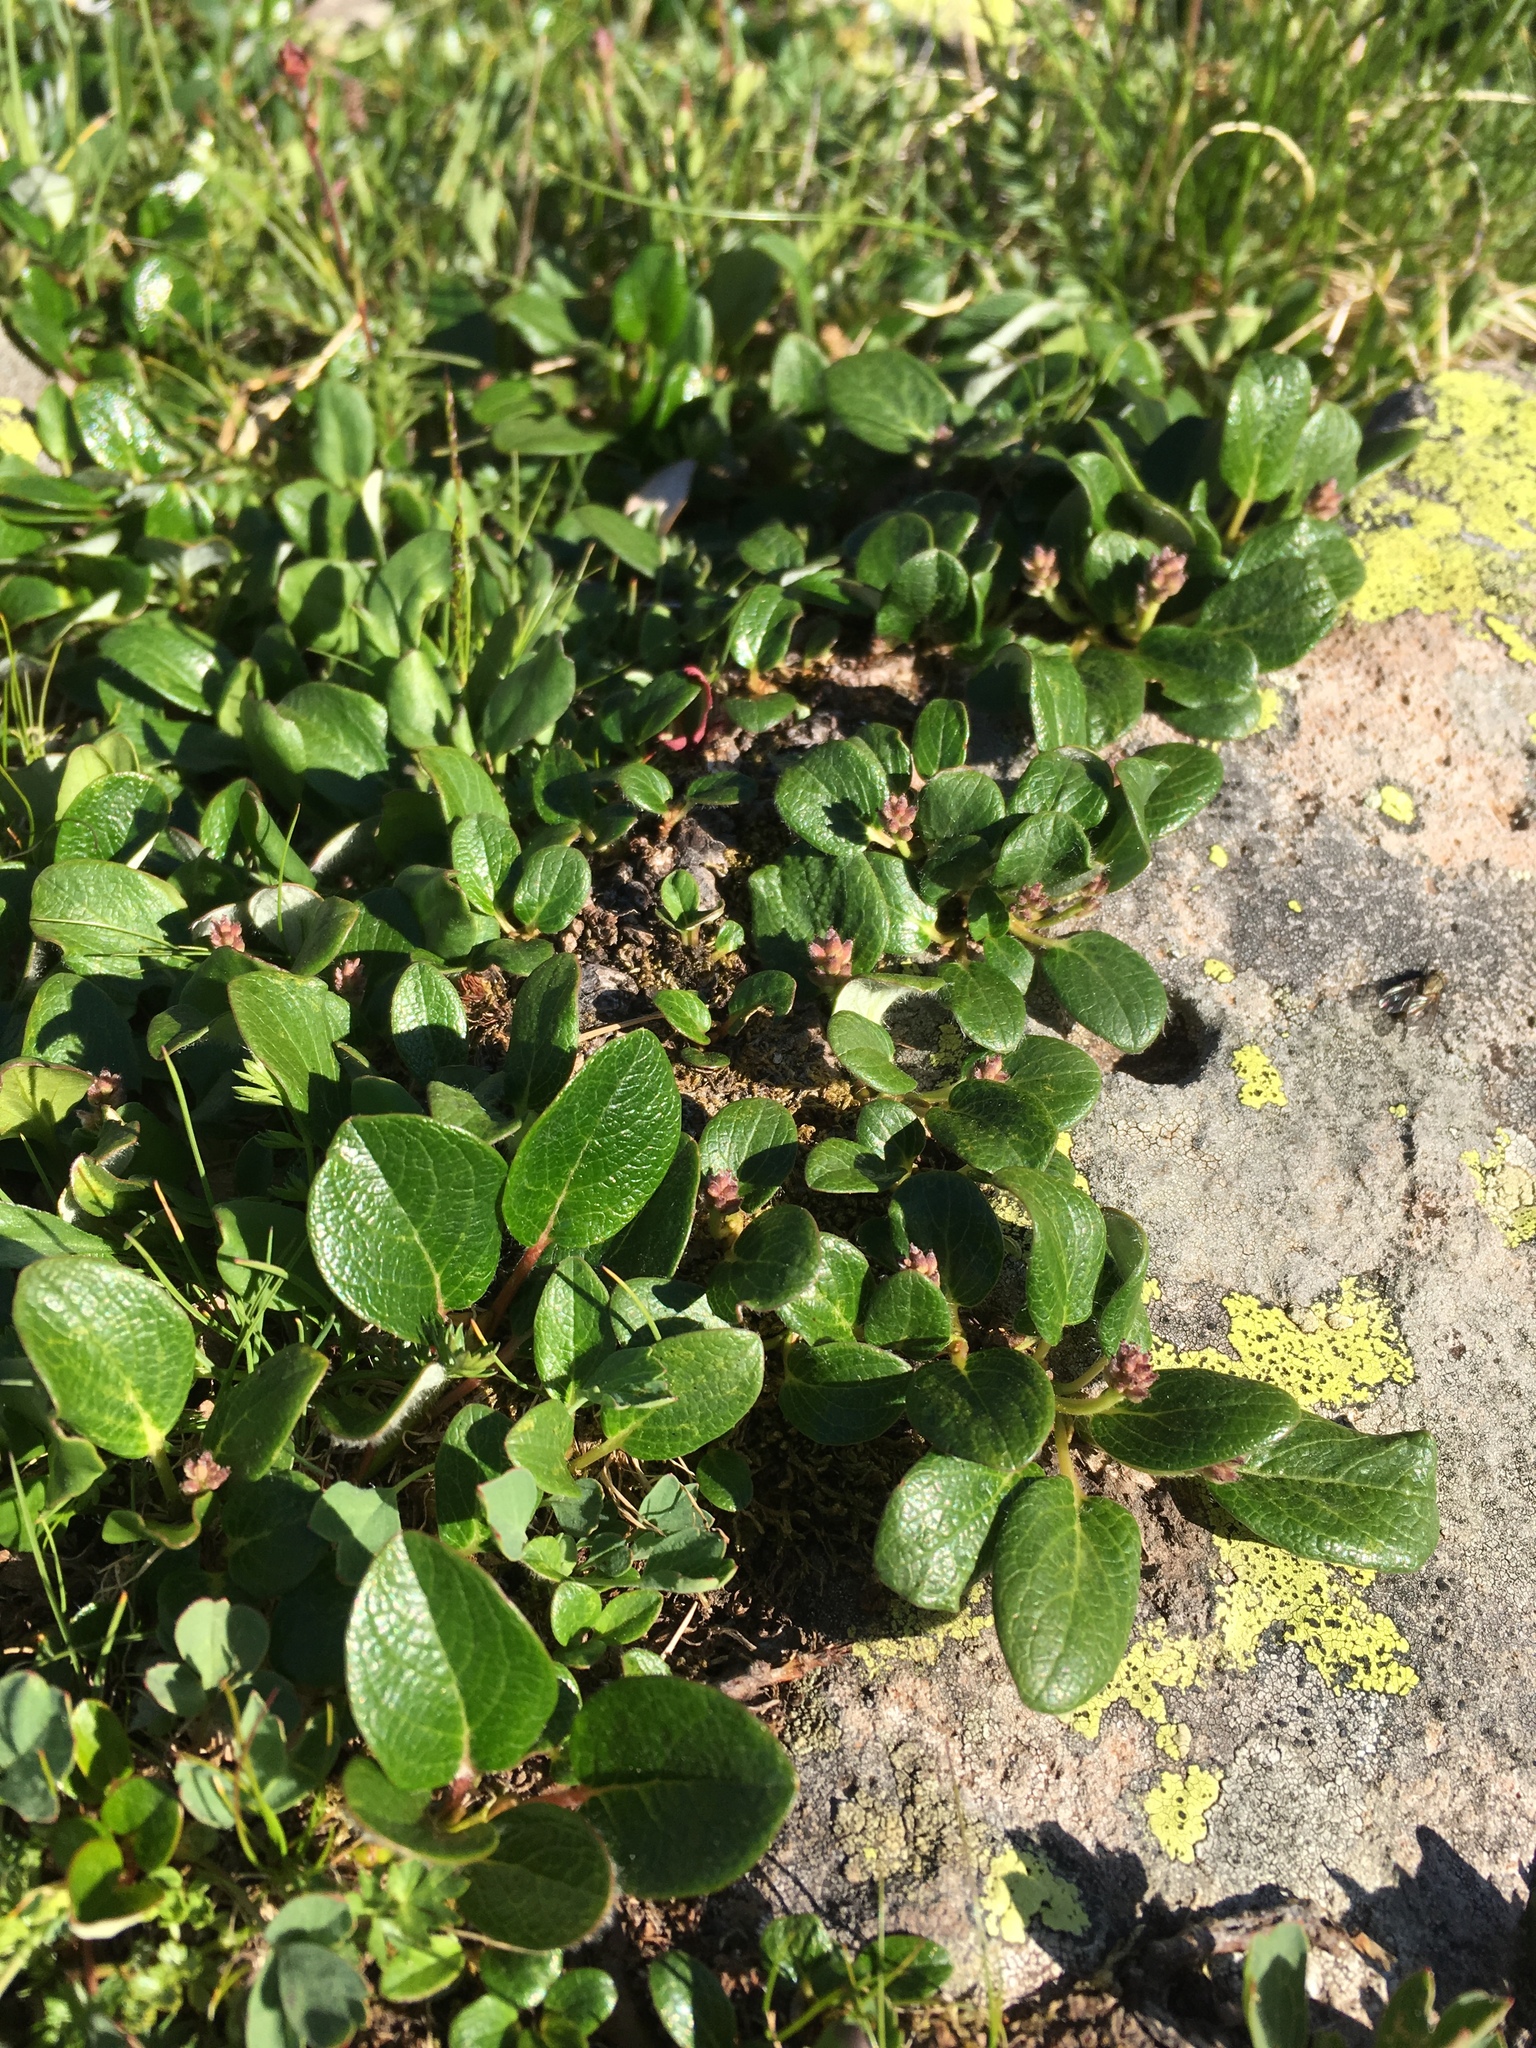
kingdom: Plantae
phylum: Tracheophyta
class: Magnoliopsida
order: Malpighiales
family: Salicaceae
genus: Salix
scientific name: Salix nivalis
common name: Dwarf snow willow
